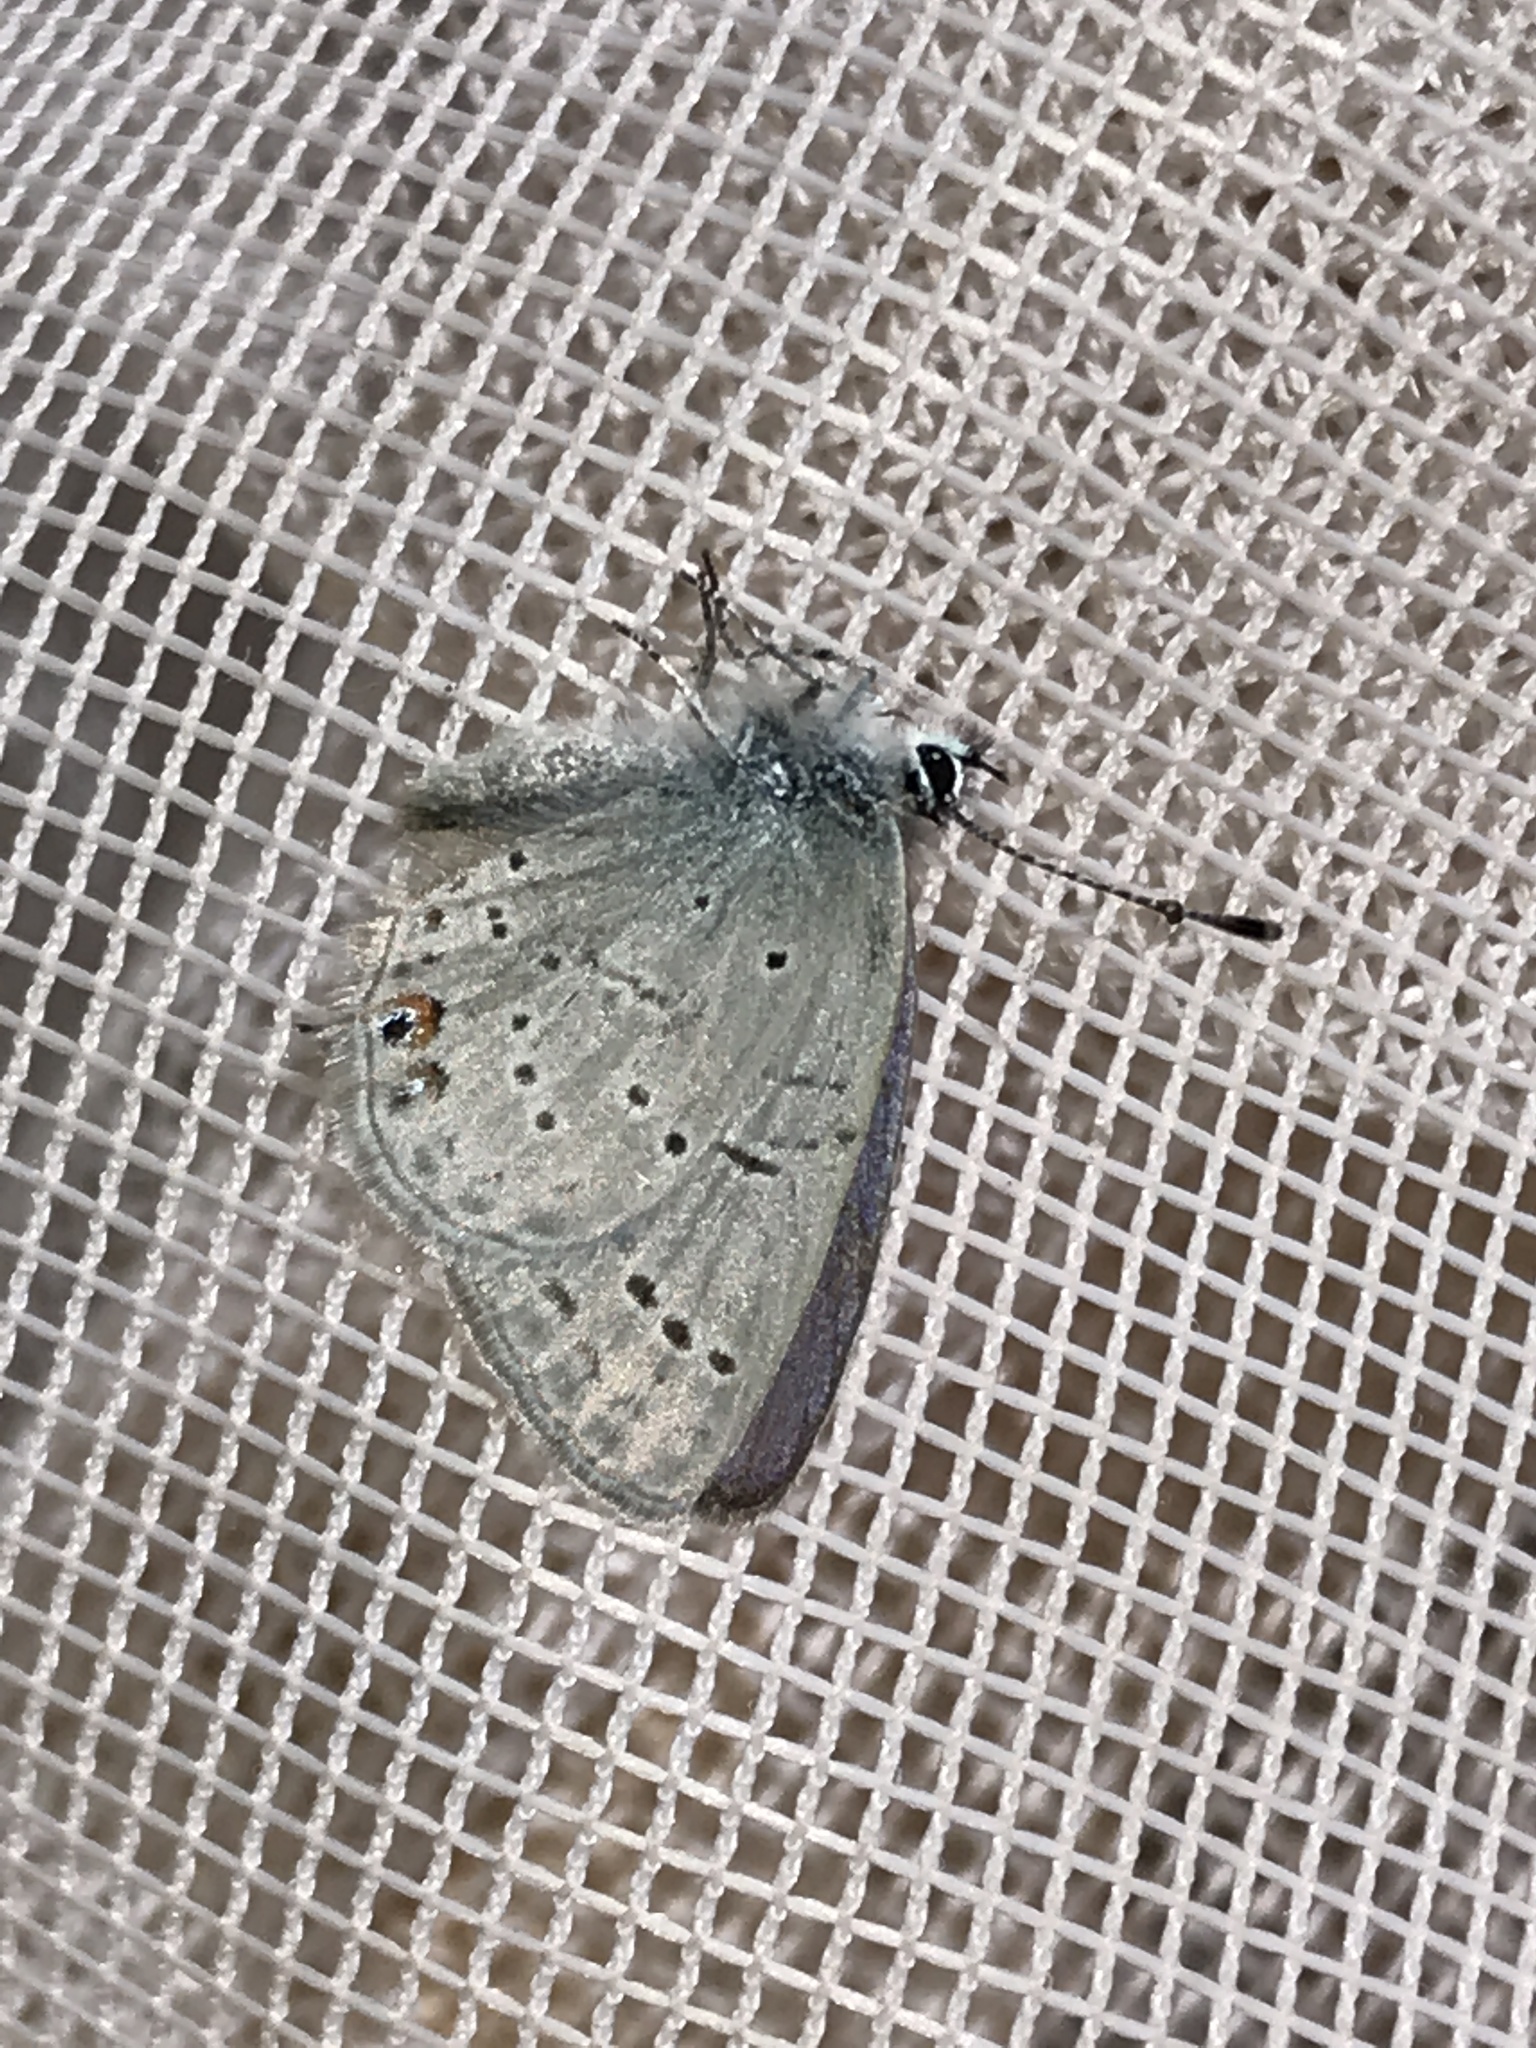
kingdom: Animalia
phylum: Arthropoda
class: Insecta
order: Lepidoptera
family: Lycaenidae
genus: Elkalyce
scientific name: Elkalyce amyntula
